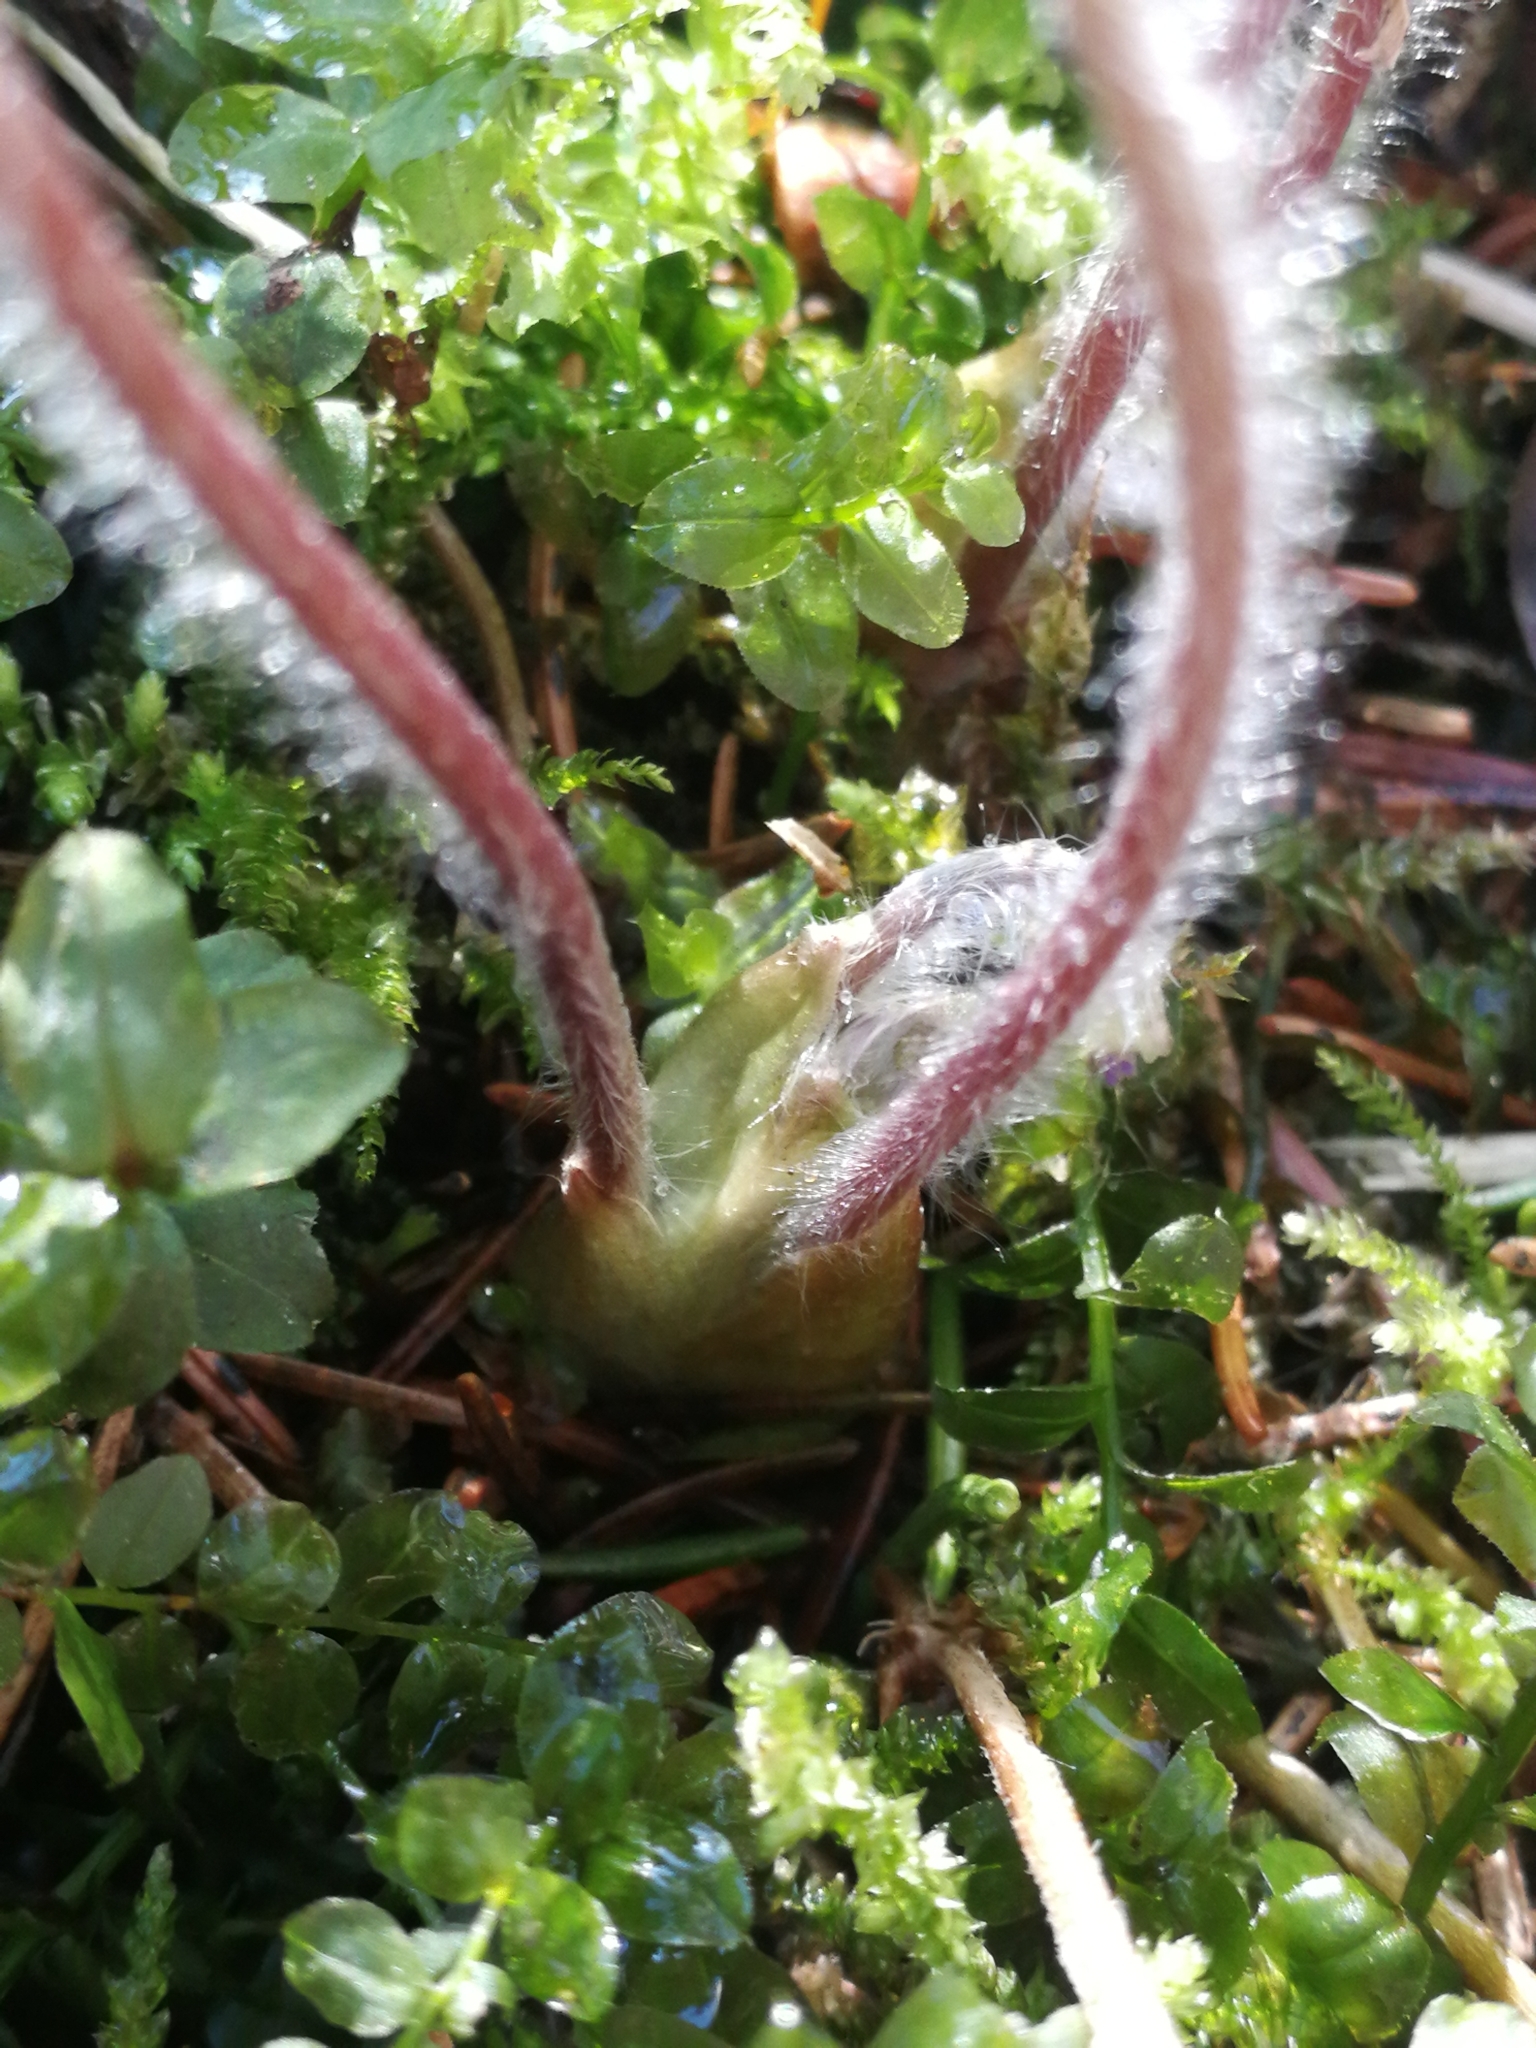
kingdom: Plantae
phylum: Tracheophyta
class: Magnoliopsida
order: Ranunculales
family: Ranunculaceae
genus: Hepatica
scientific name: Hepatica nobilis
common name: Liverleaf
